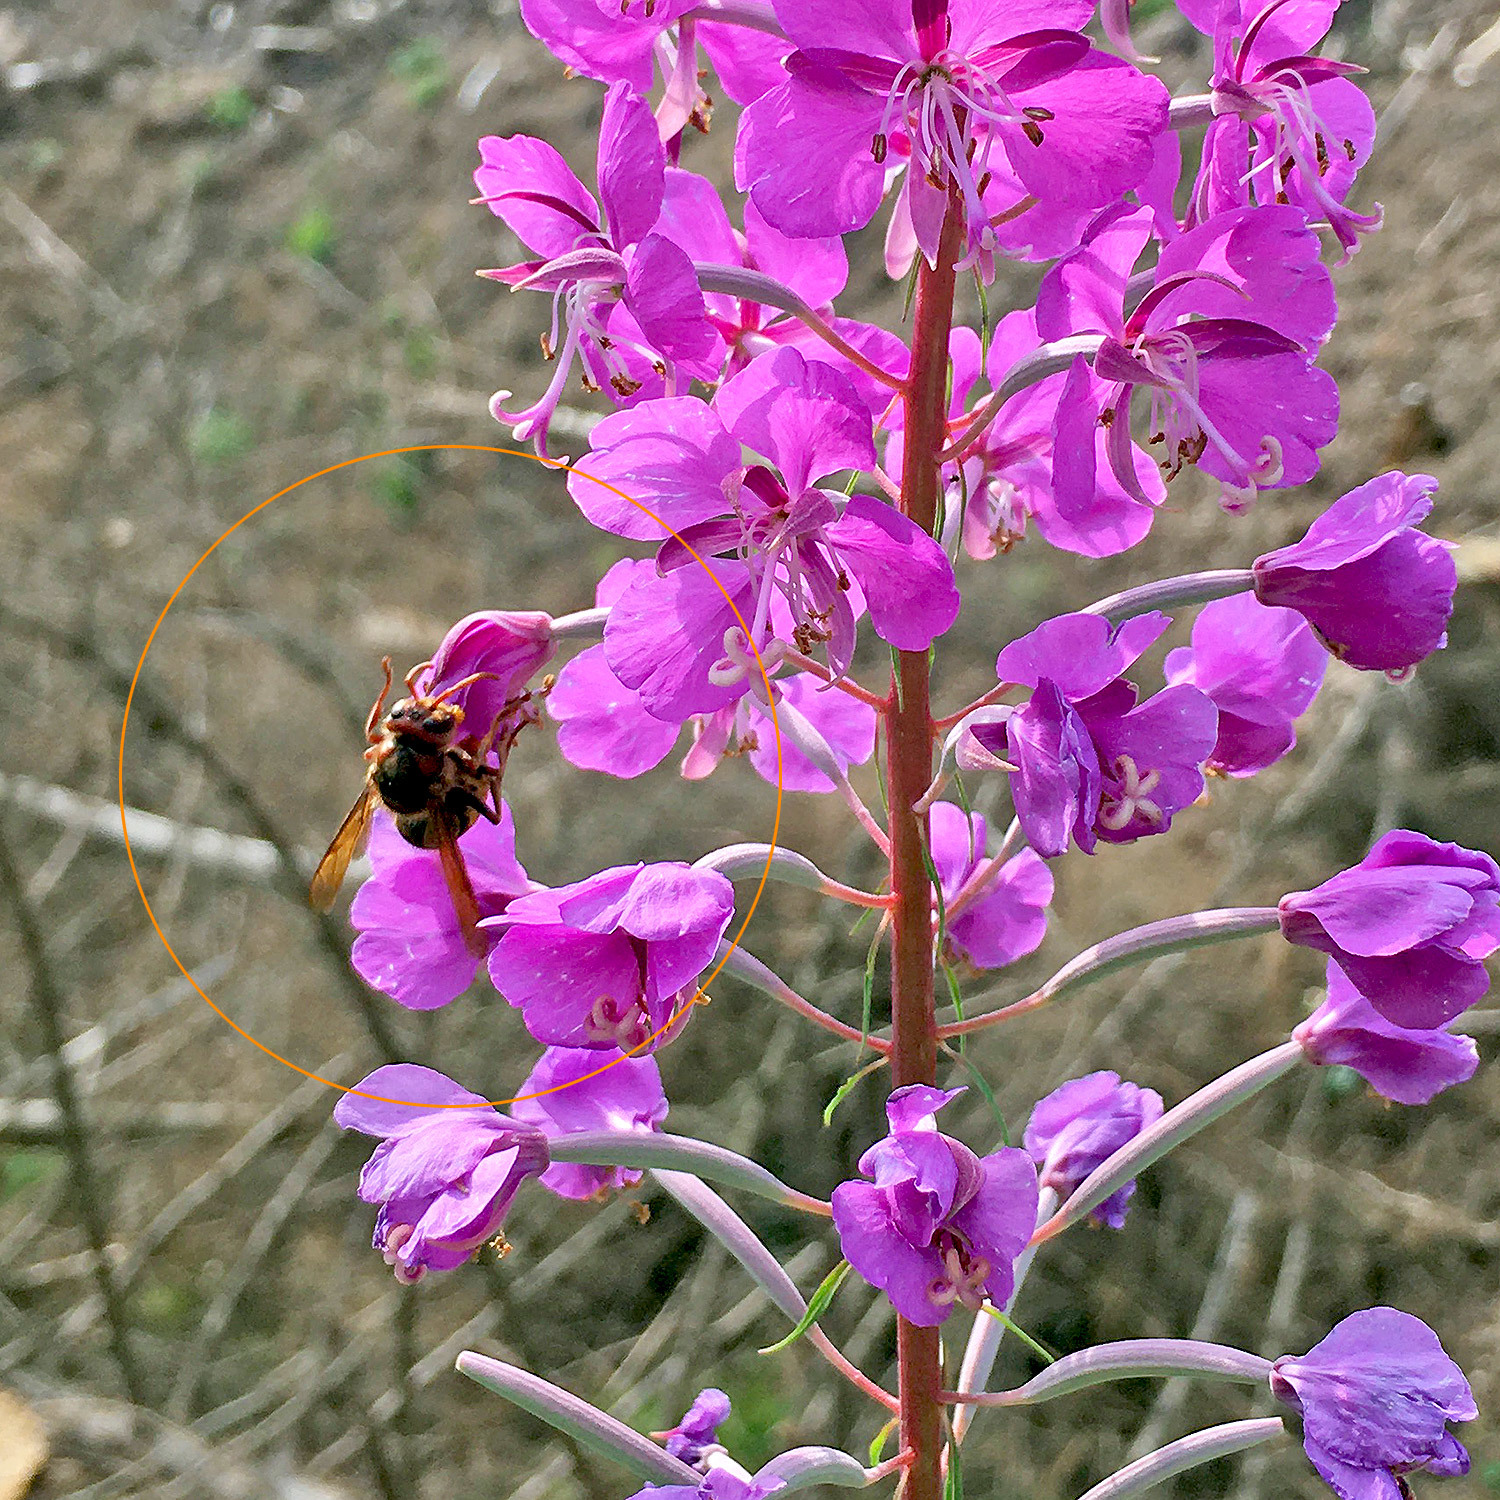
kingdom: Animalia
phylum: Arthropoda
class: Insecta
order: Hymenoptera
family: Vespidae
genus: Vespa
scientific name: Vespa crabro
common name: Hornet
